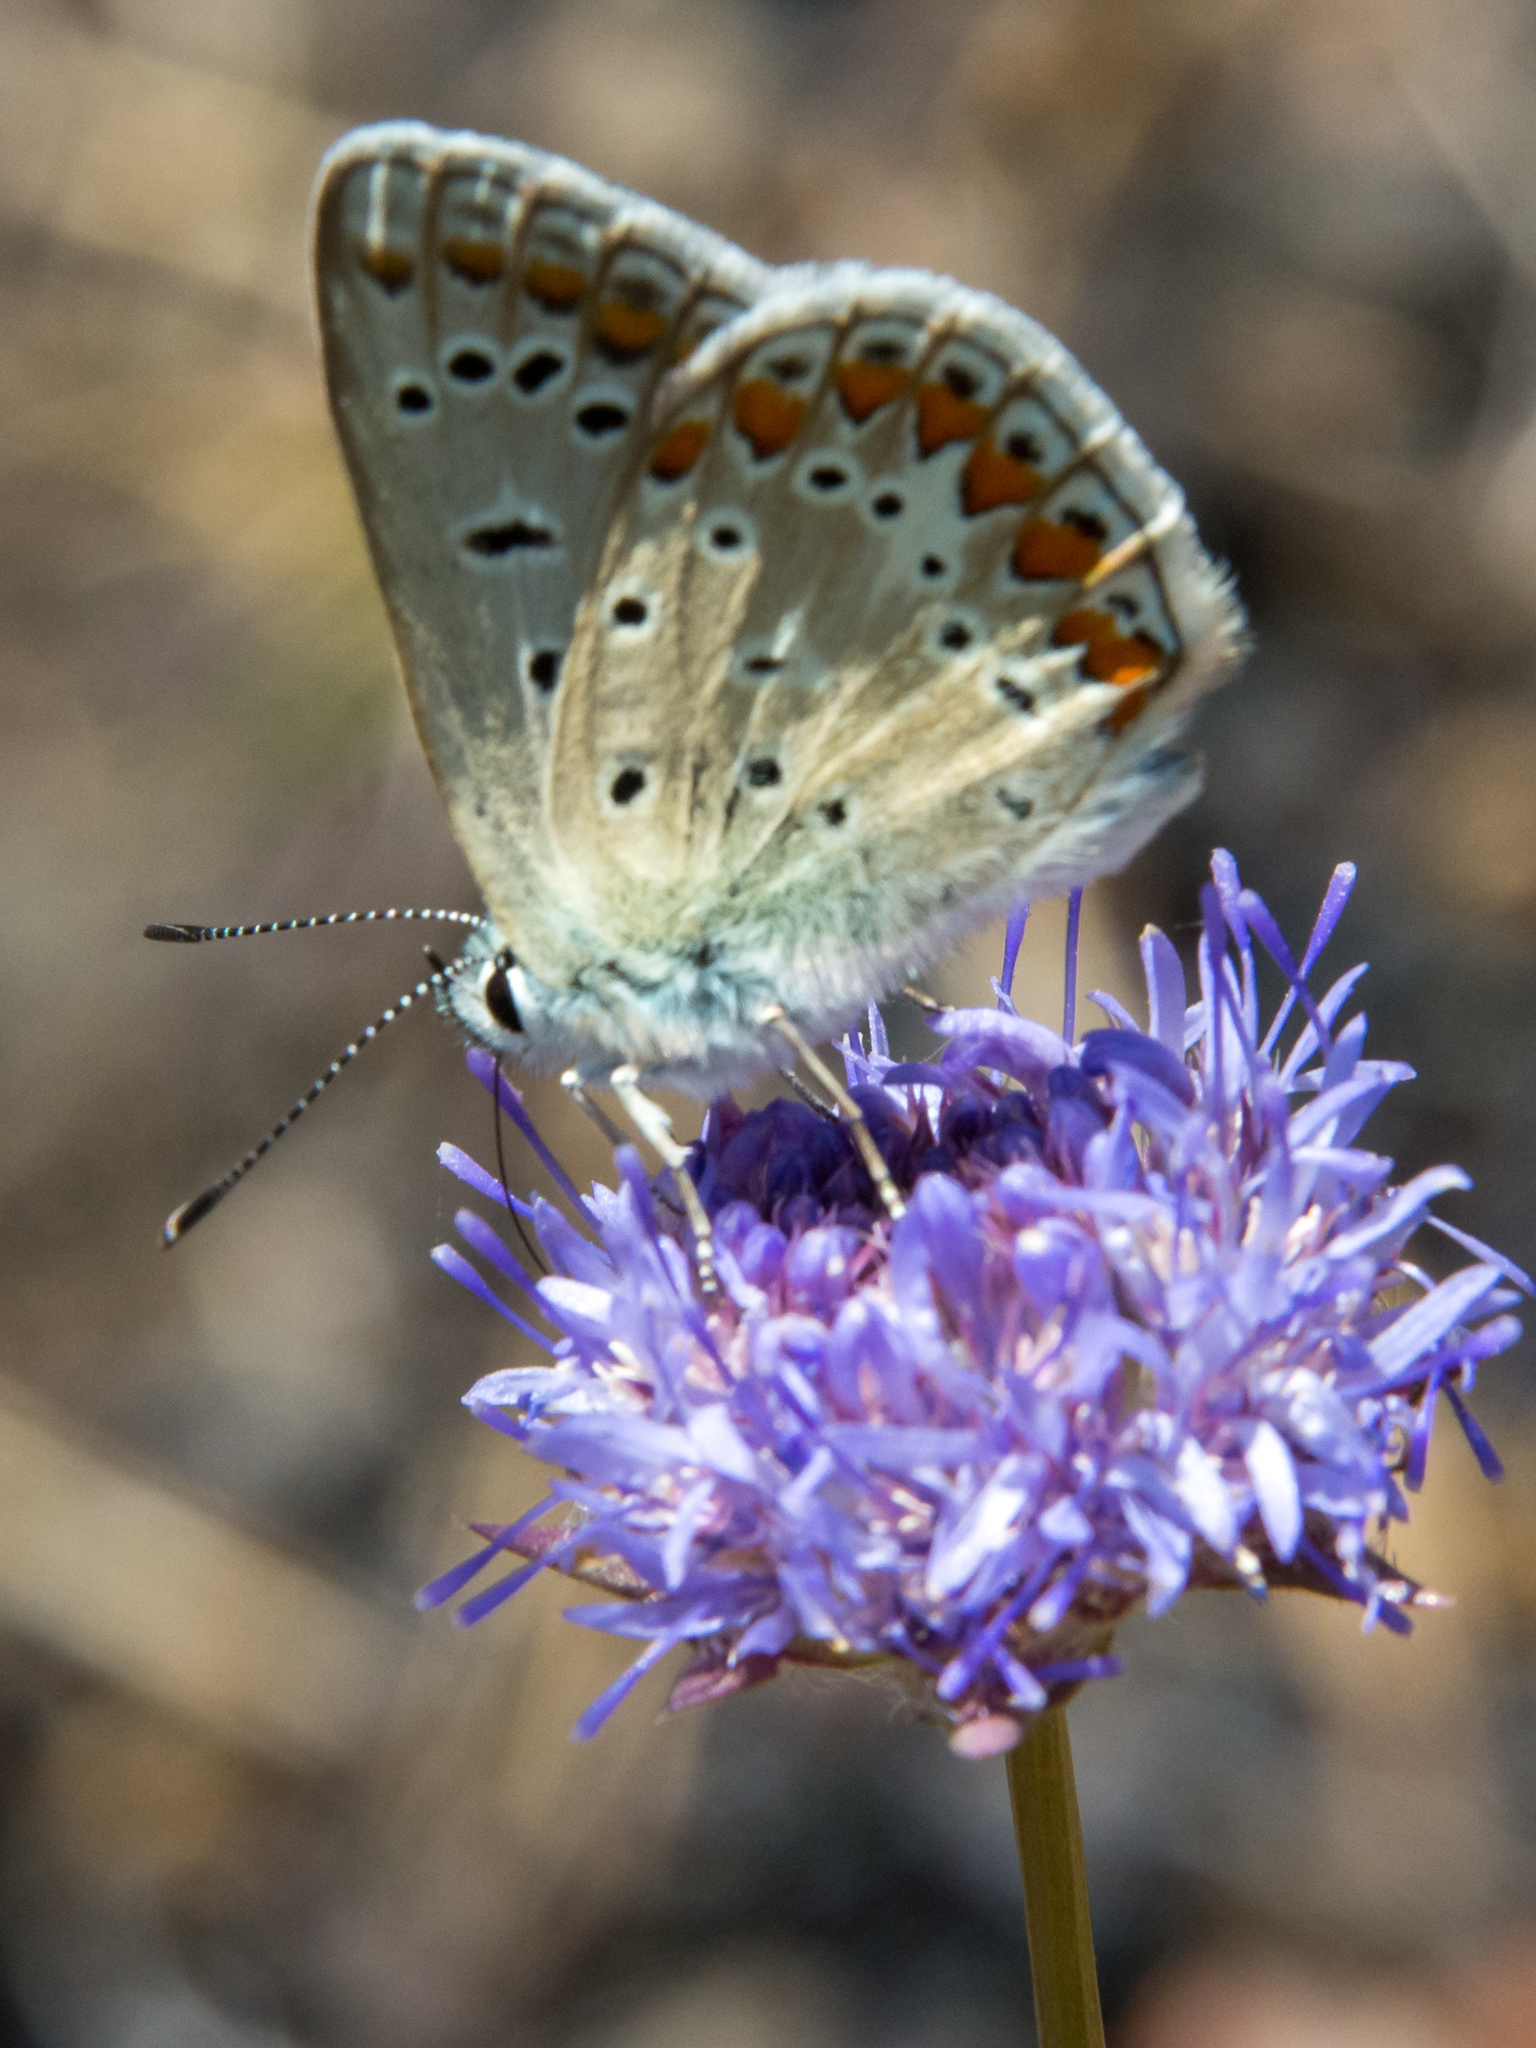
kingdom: Animalia
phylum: Arthropoda
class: Insecta
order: Lepidoptera
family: Lycaenidae
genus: Polyommatus
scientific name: Polyommatus celina
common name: Austaut's blue
